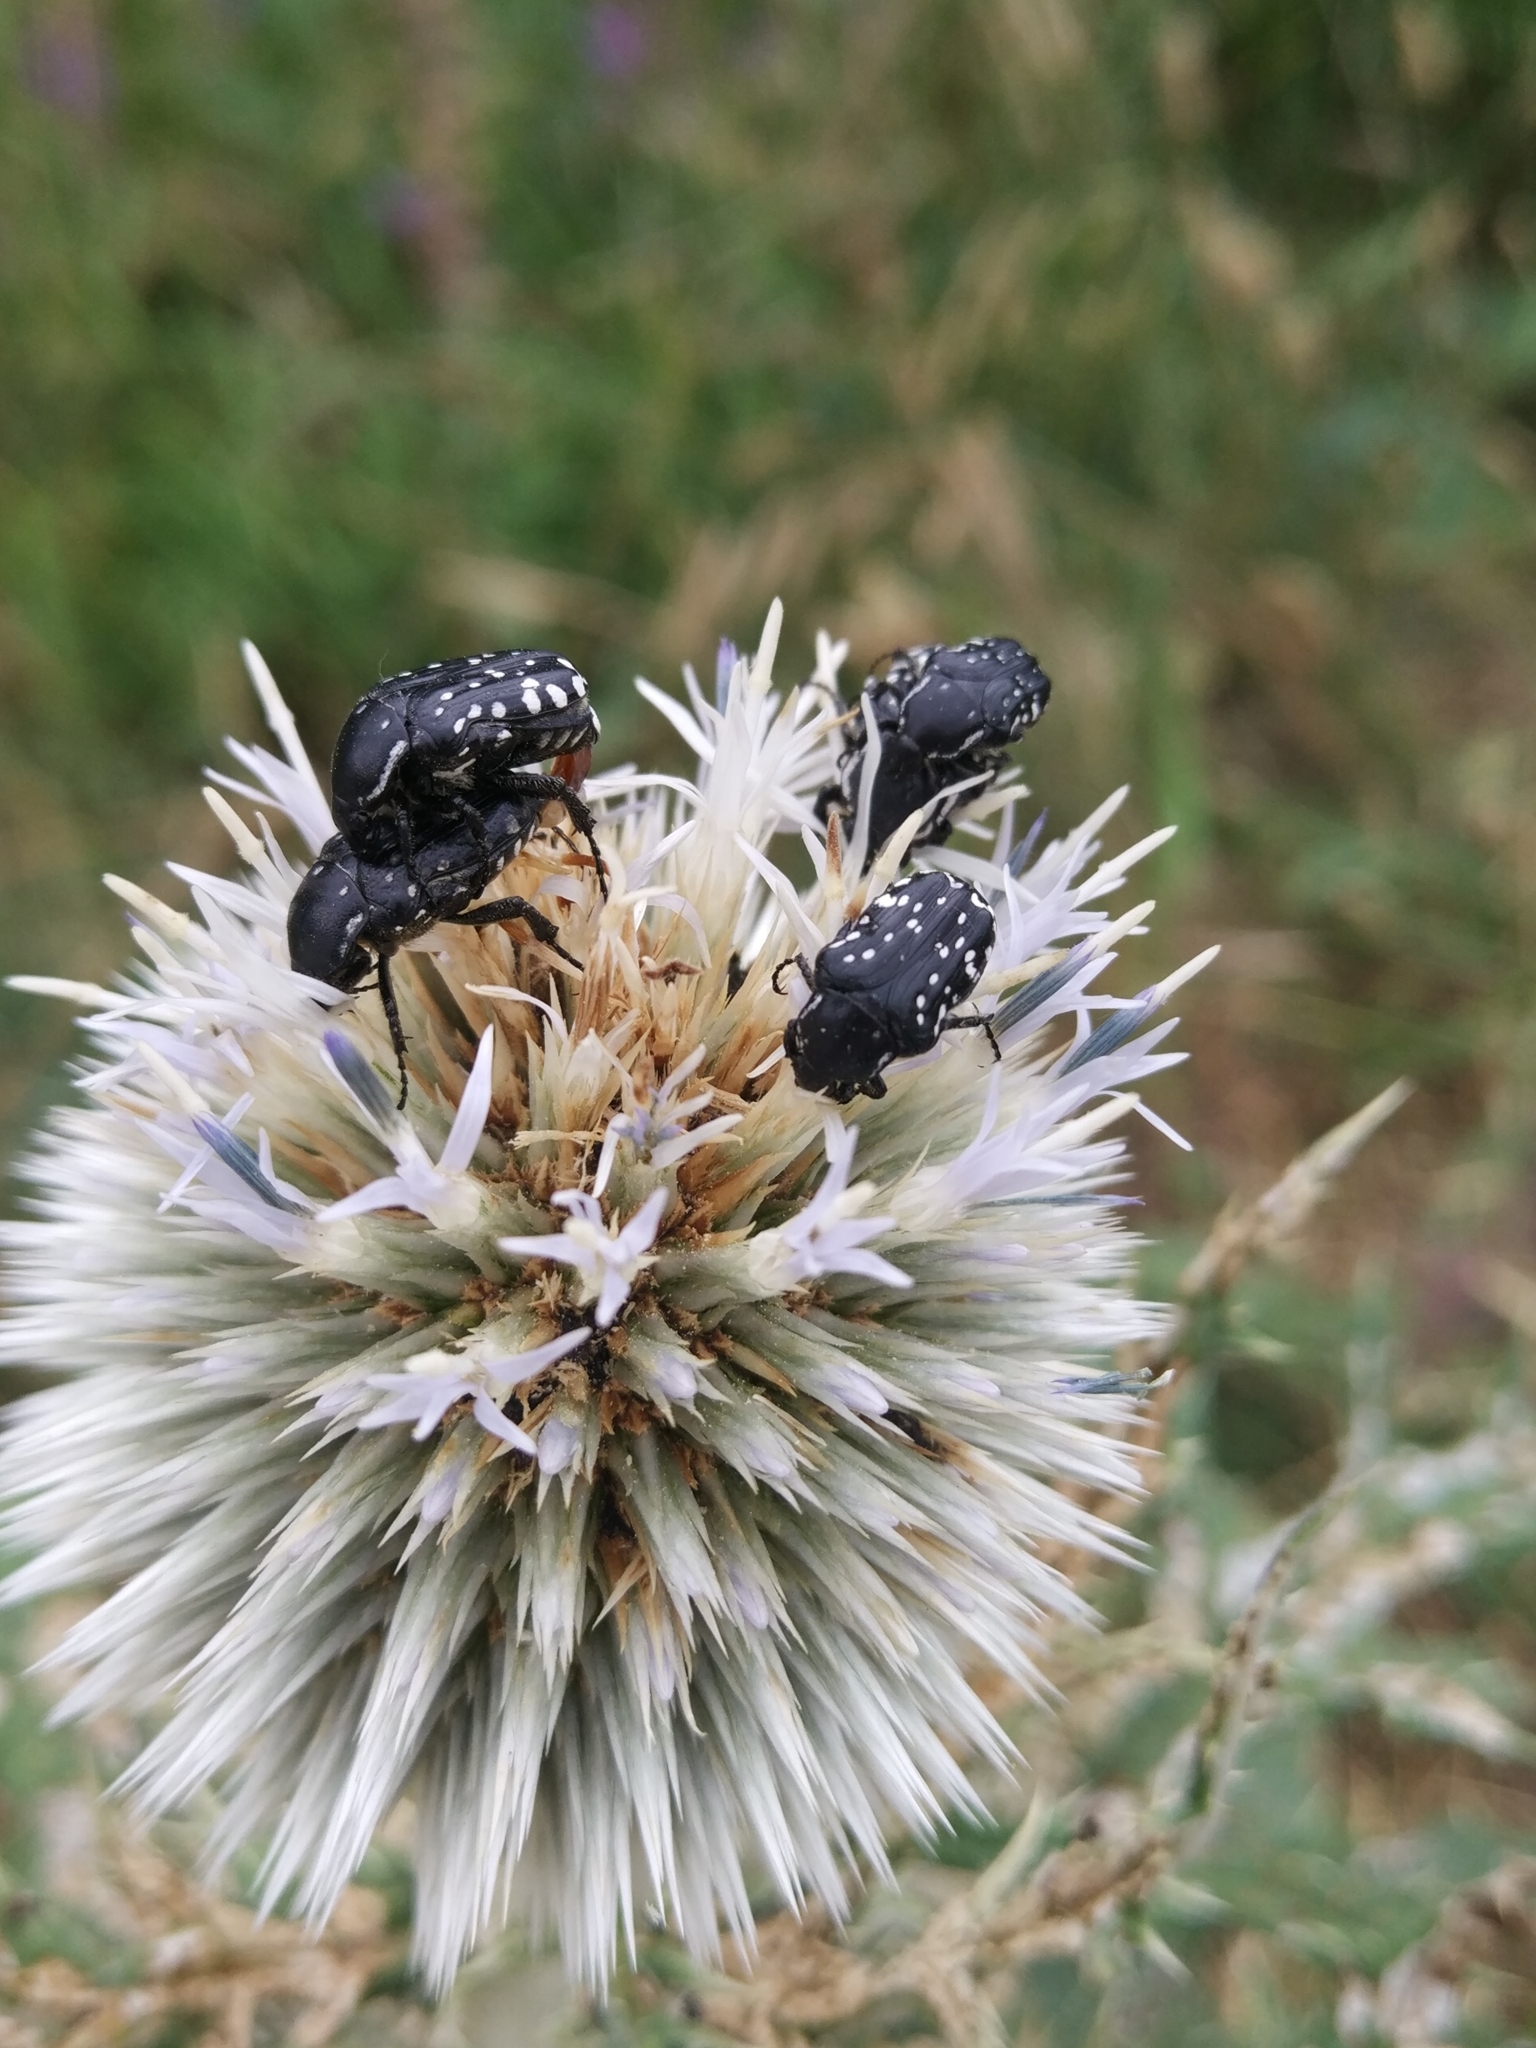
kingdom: Animalia
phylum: Arthropoda
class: Insecta
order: Coleoptera
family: Scarabaeidae
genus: Oxythyrea
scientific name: Oxythyrea cinctella
